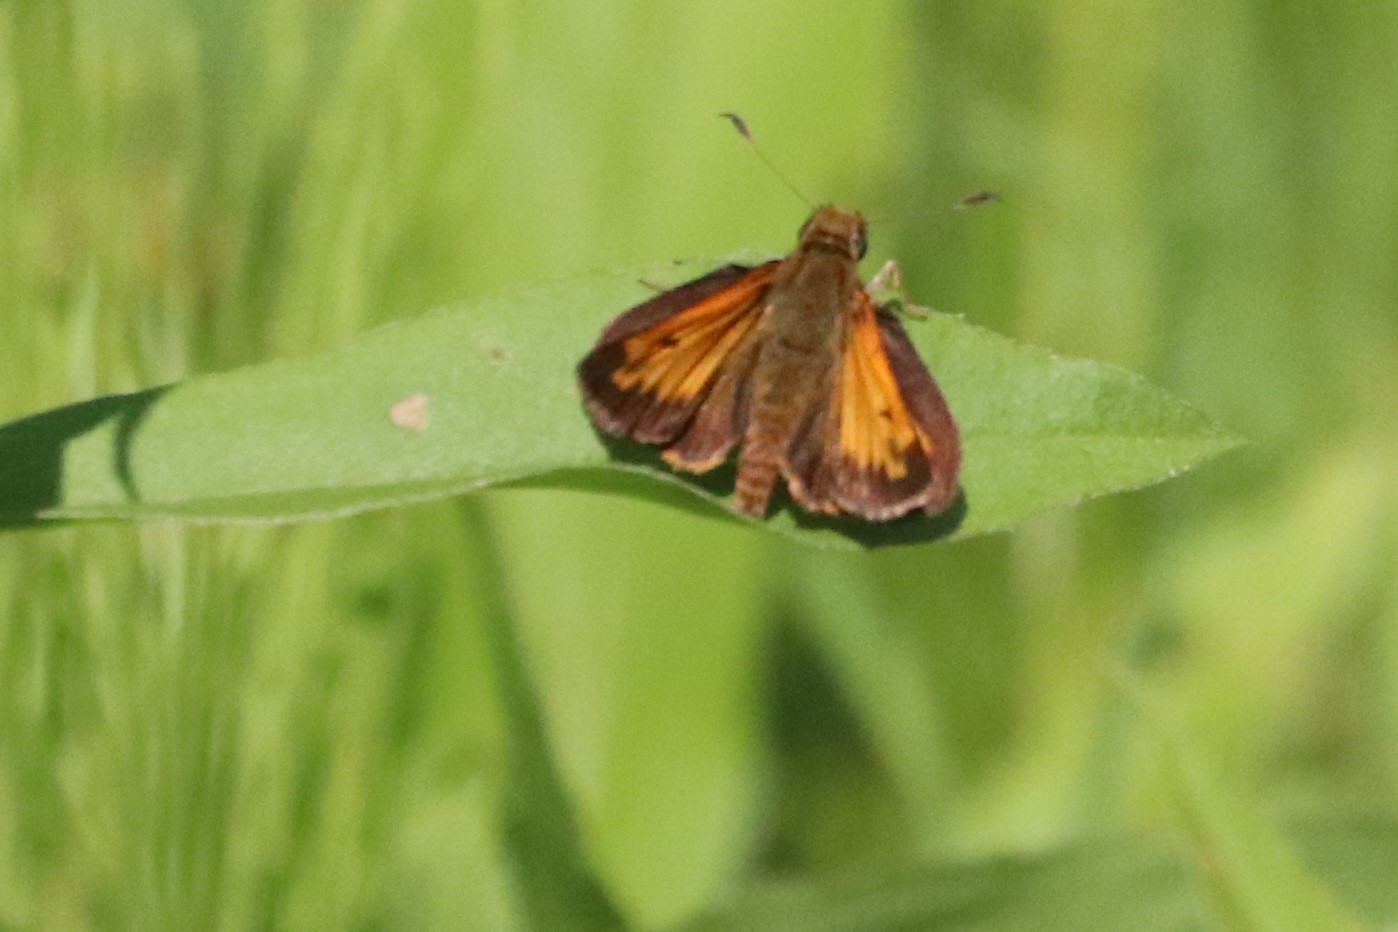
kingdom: Animalia
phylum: Arthropoda
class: Insecta
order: Lepidoptera
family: Hesperiidae
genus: Lon
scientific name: Lon hobomok
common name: Hobomok skipper
